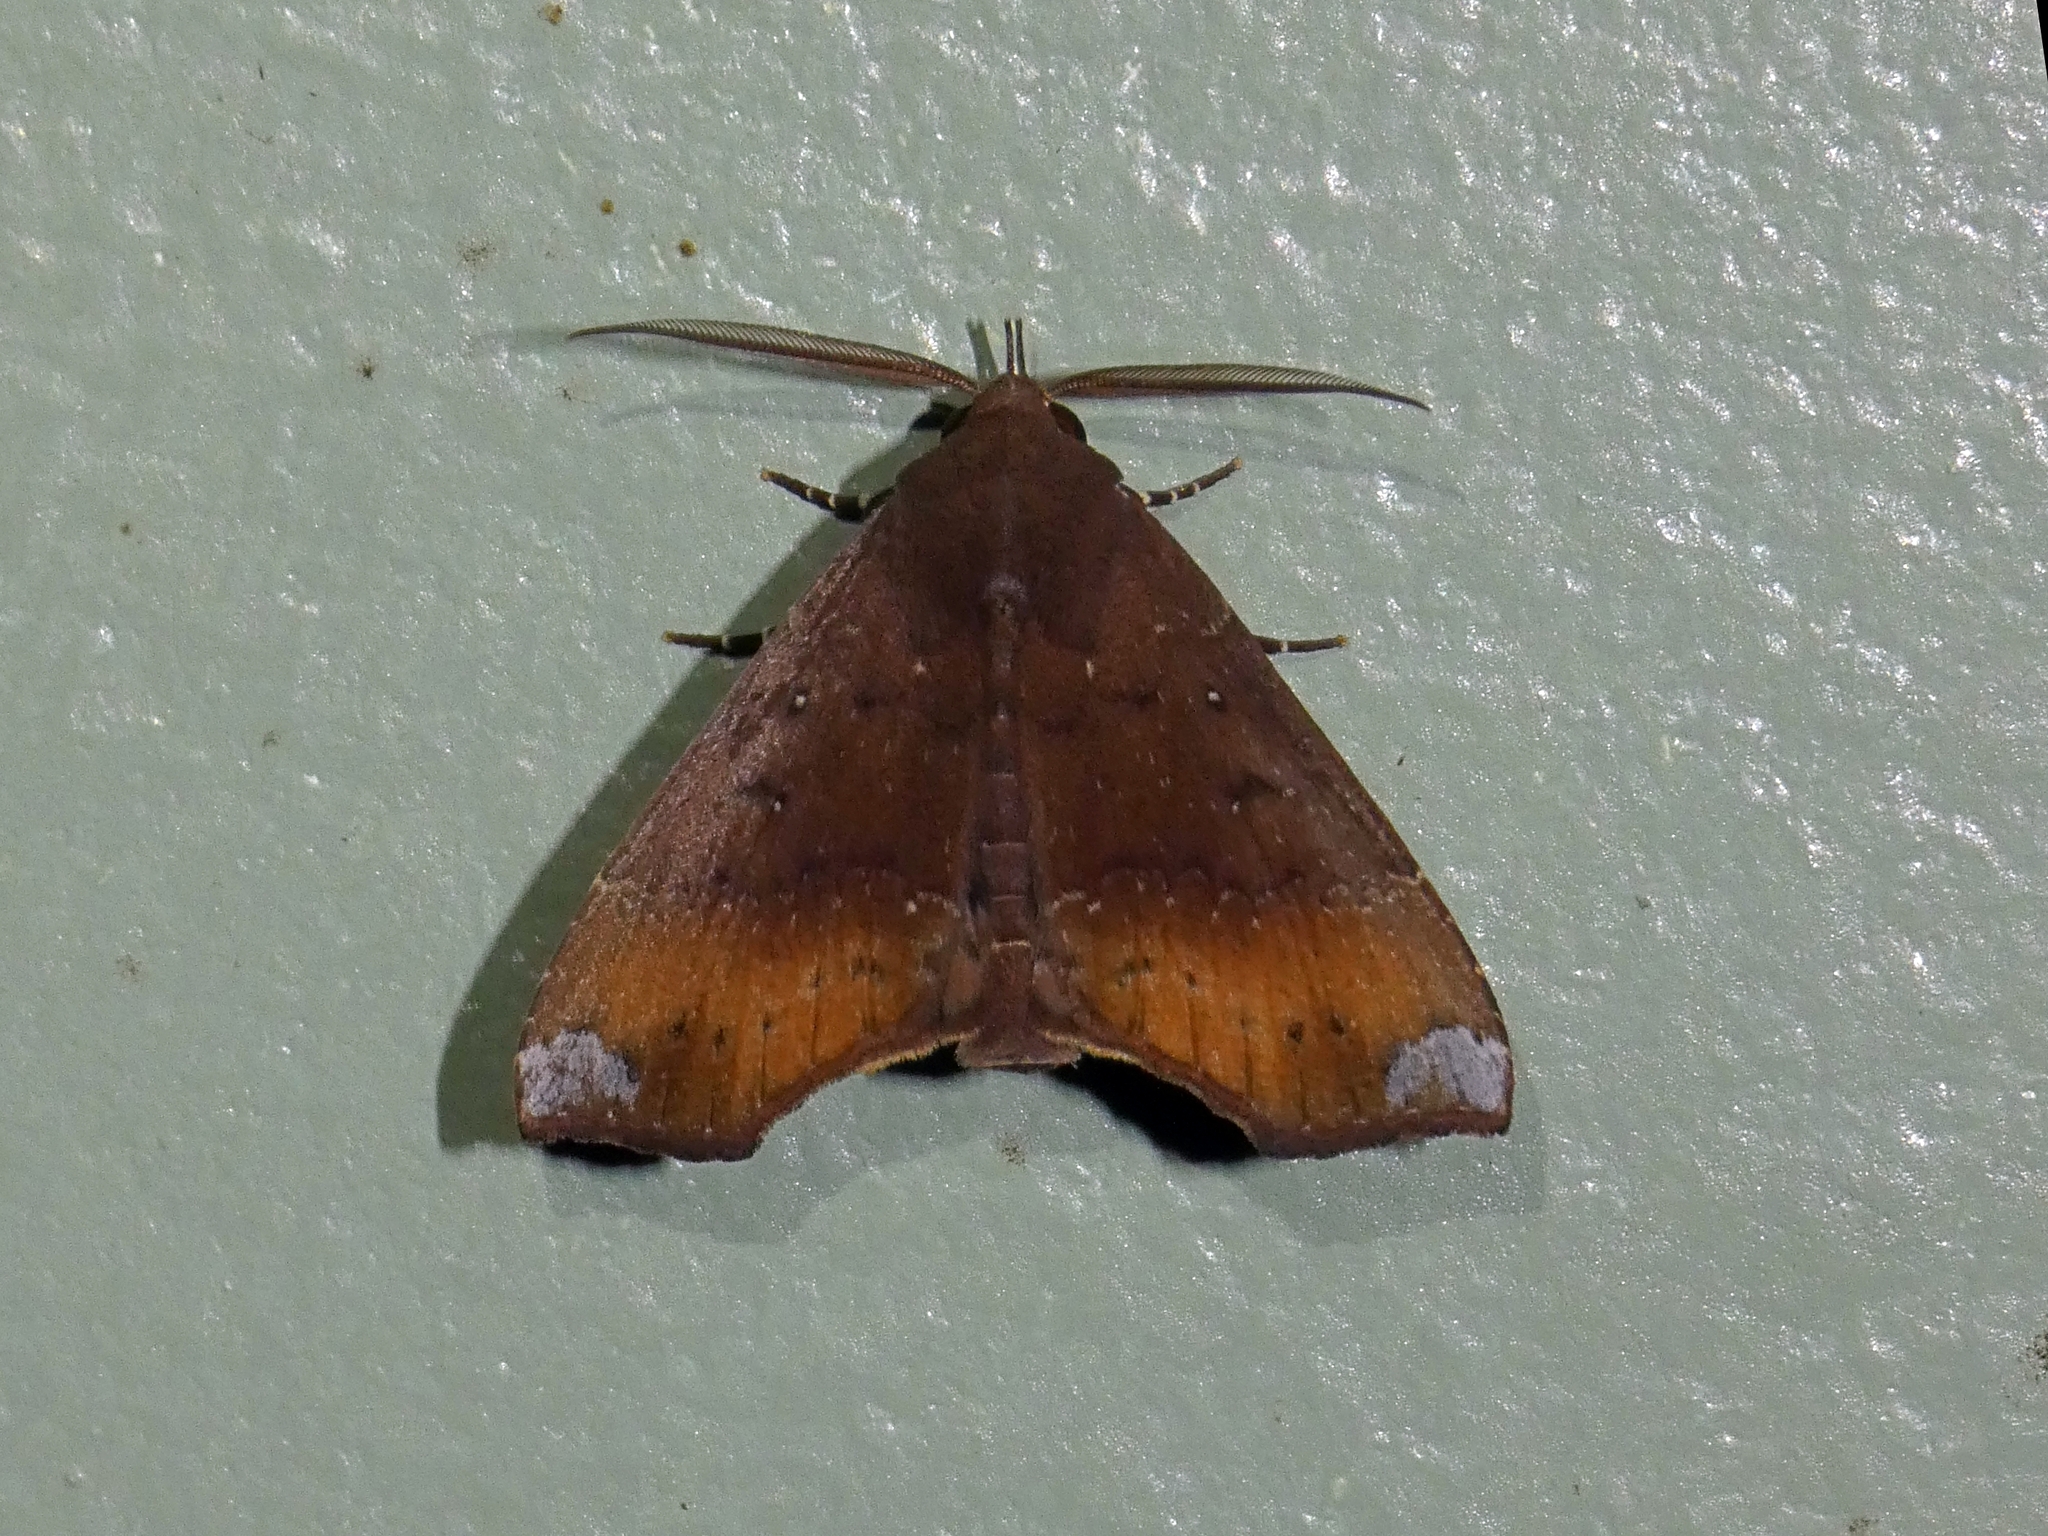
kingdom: Animalia
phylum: Arthropoda
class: Insecta
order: Lepidoptera
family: Erebidae
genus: Savara
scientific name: Savara variabilis
